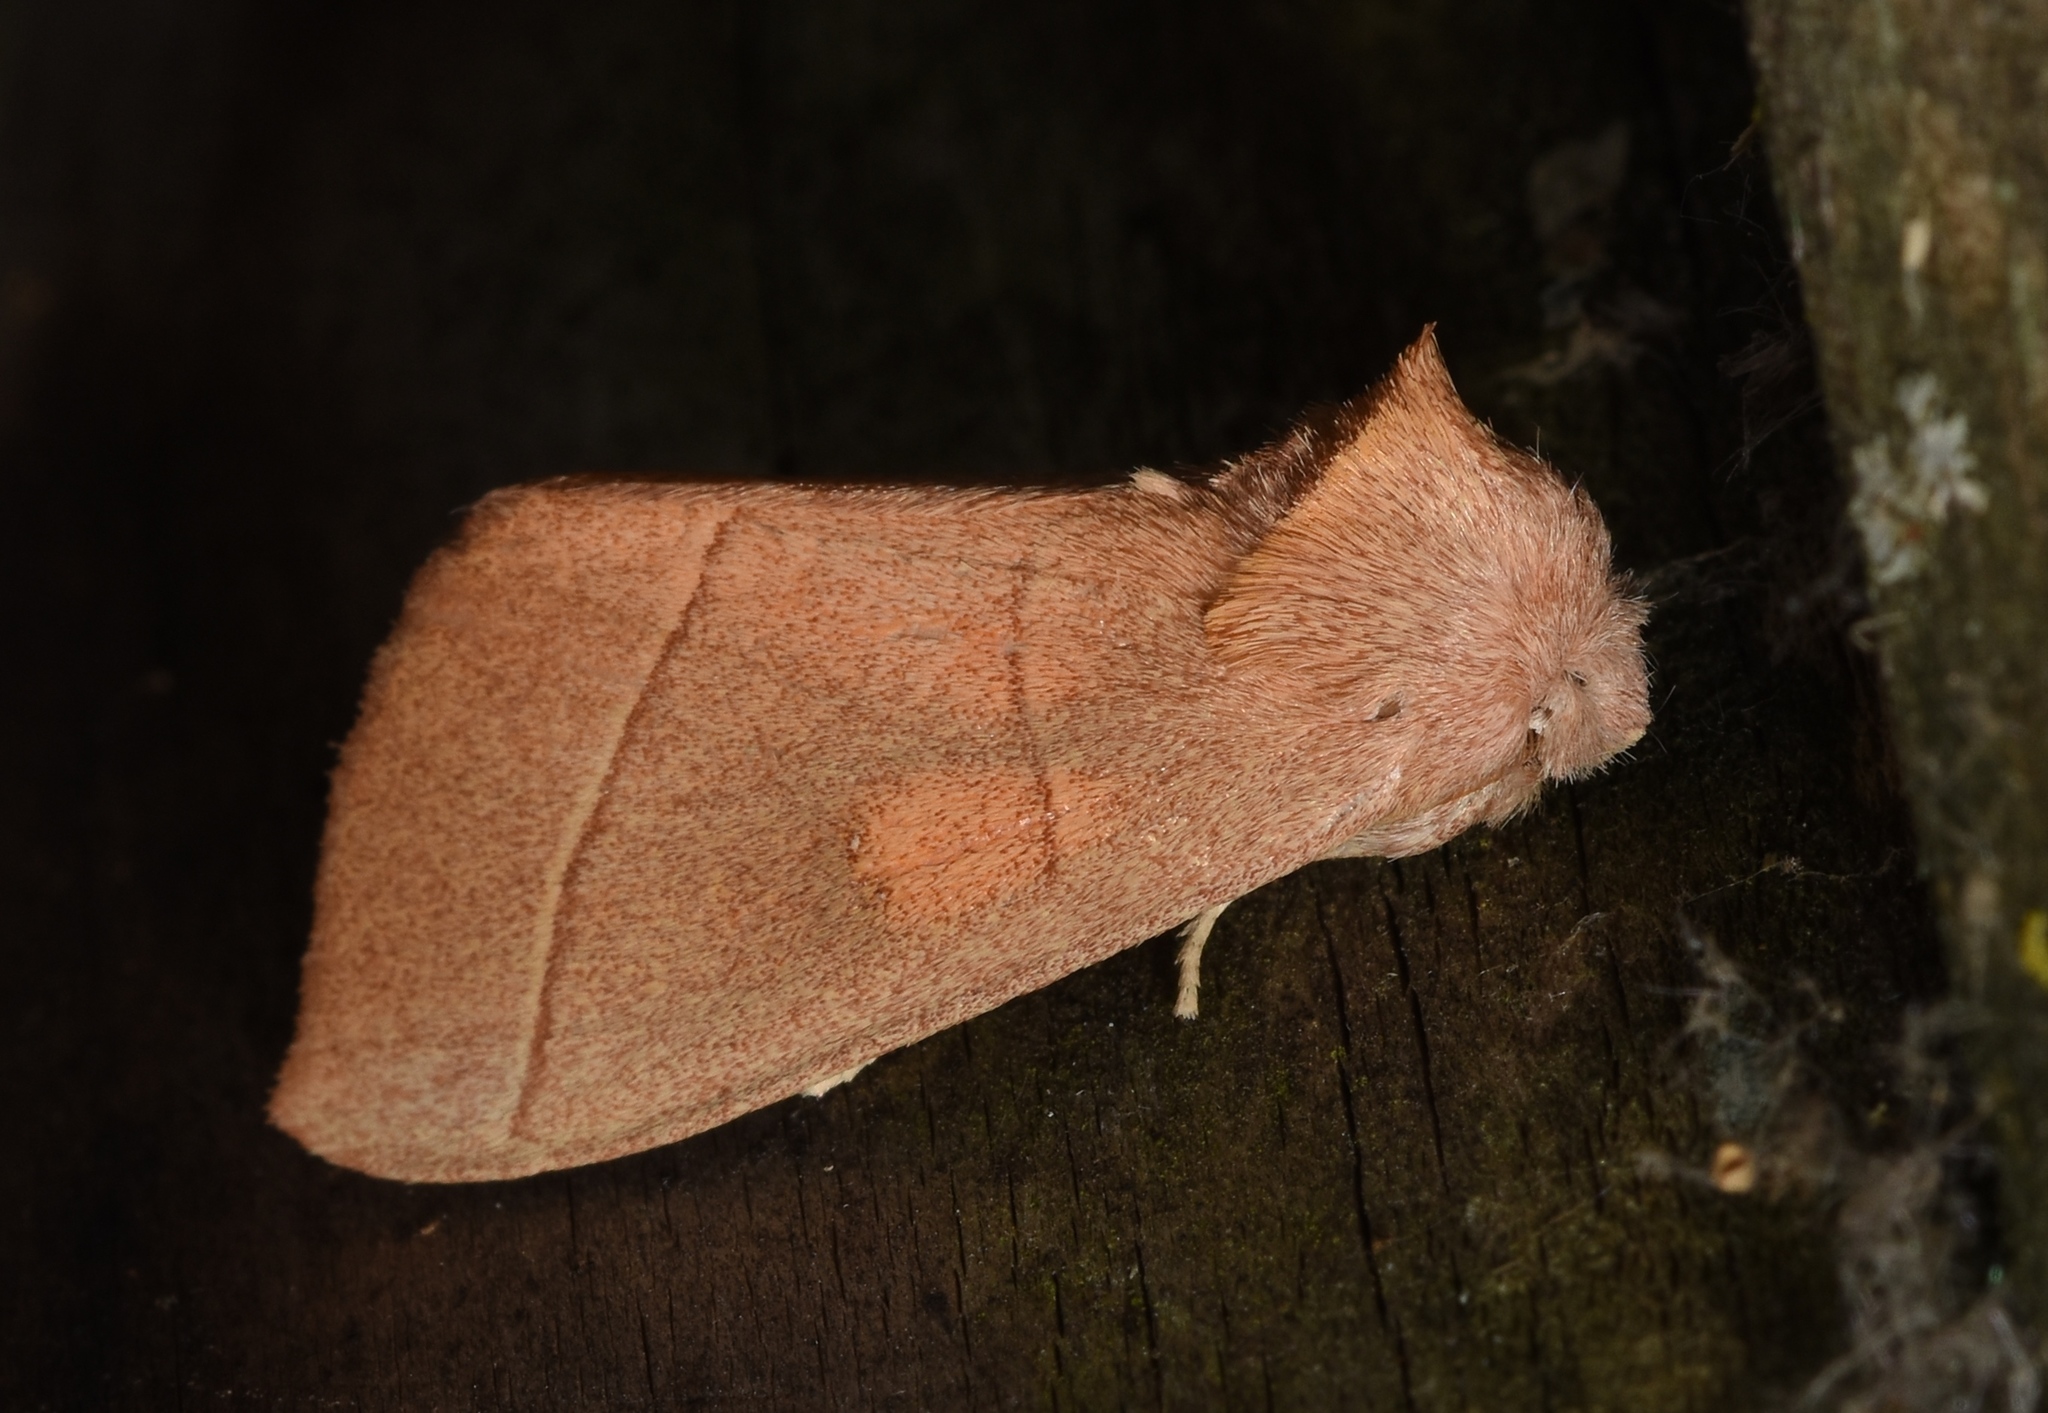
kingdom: Animalia
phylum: Arthropoda
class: Insecta
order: Lepidoptera
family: Notodontidae
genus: Nadata
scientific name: Nadata gibbosa
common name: White-dotted prominent
